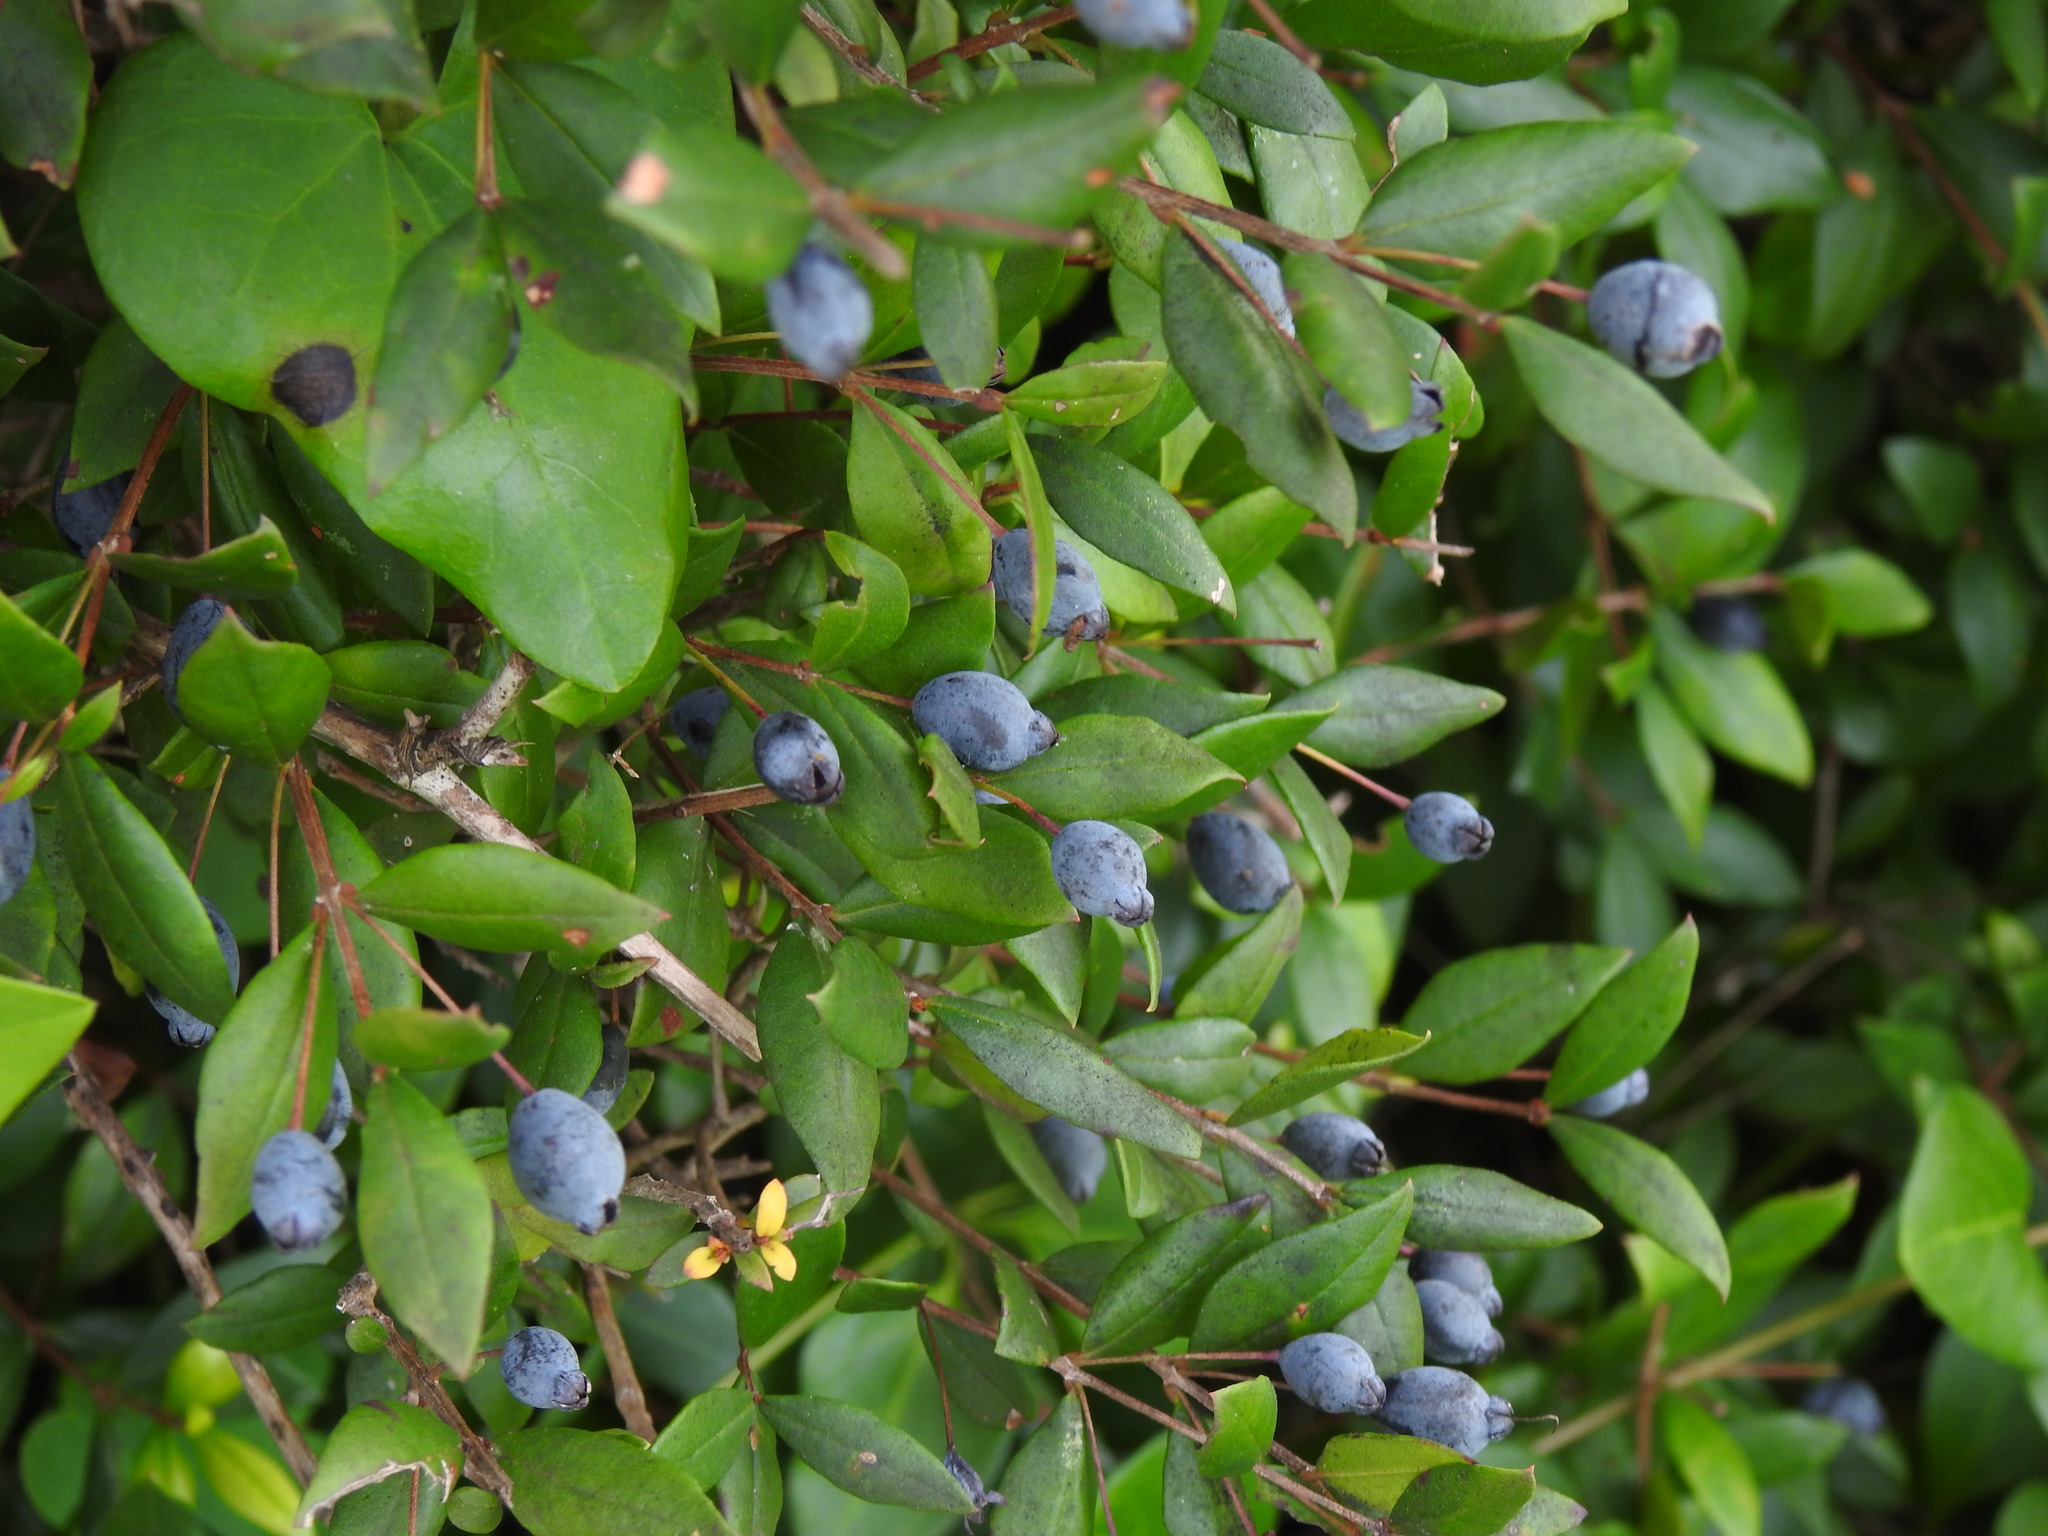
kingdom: Plantae
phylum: Tracheophyta
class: Magnoliopsida
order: Myrtales
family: Myrtaceae
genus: Myrtus
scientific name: Myrtus communis
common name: Myrtle
